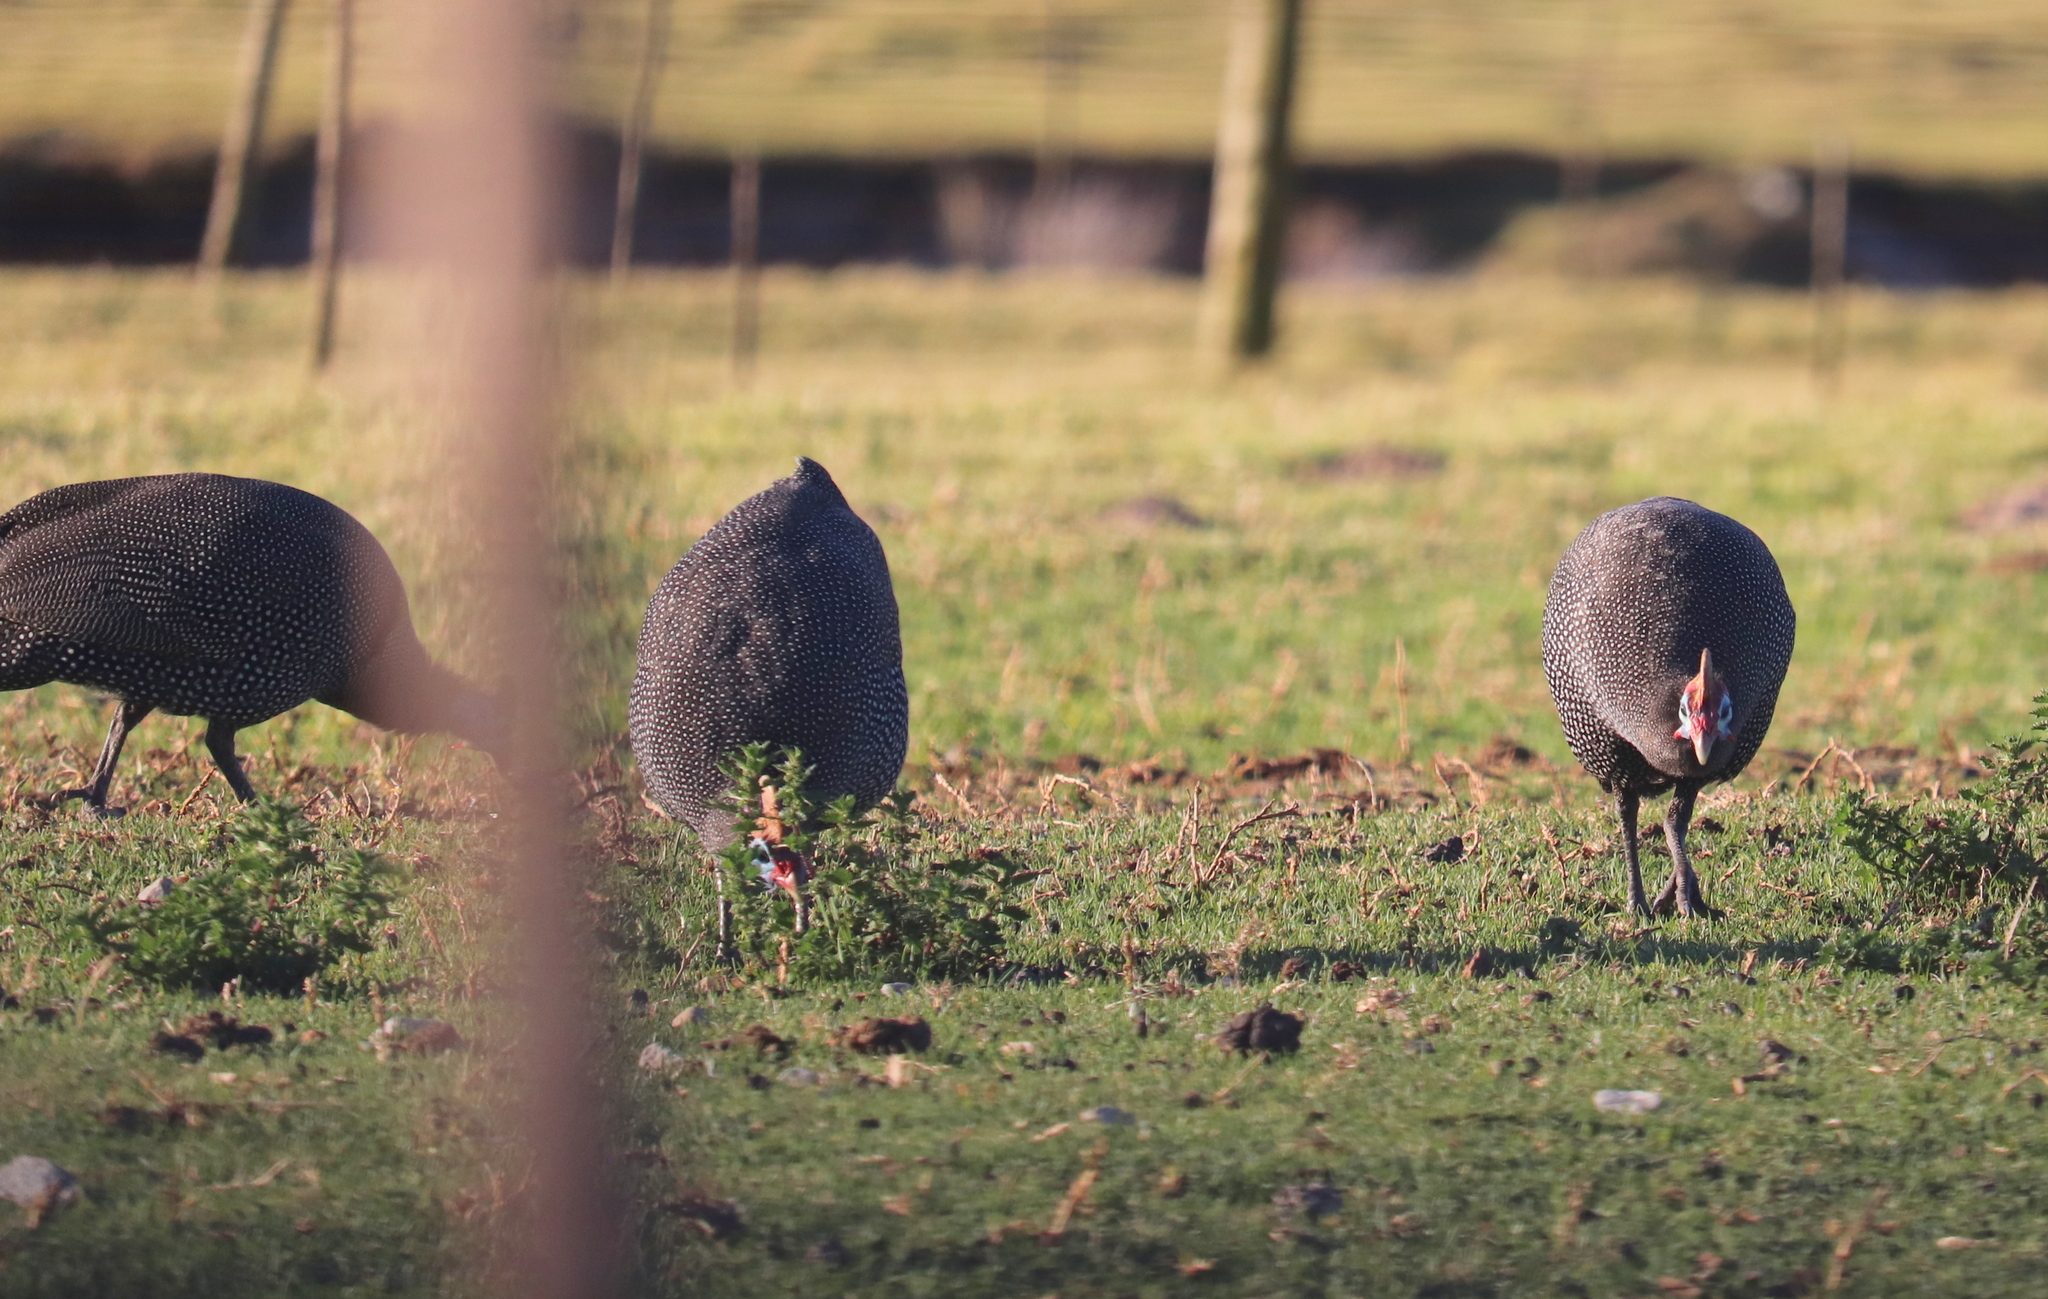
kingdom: Animalia
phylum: Chordata
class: Aves
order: Galliformes
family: Numididae
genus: Numida
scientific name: Numida meleagris
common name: Helmeted guineafowl
